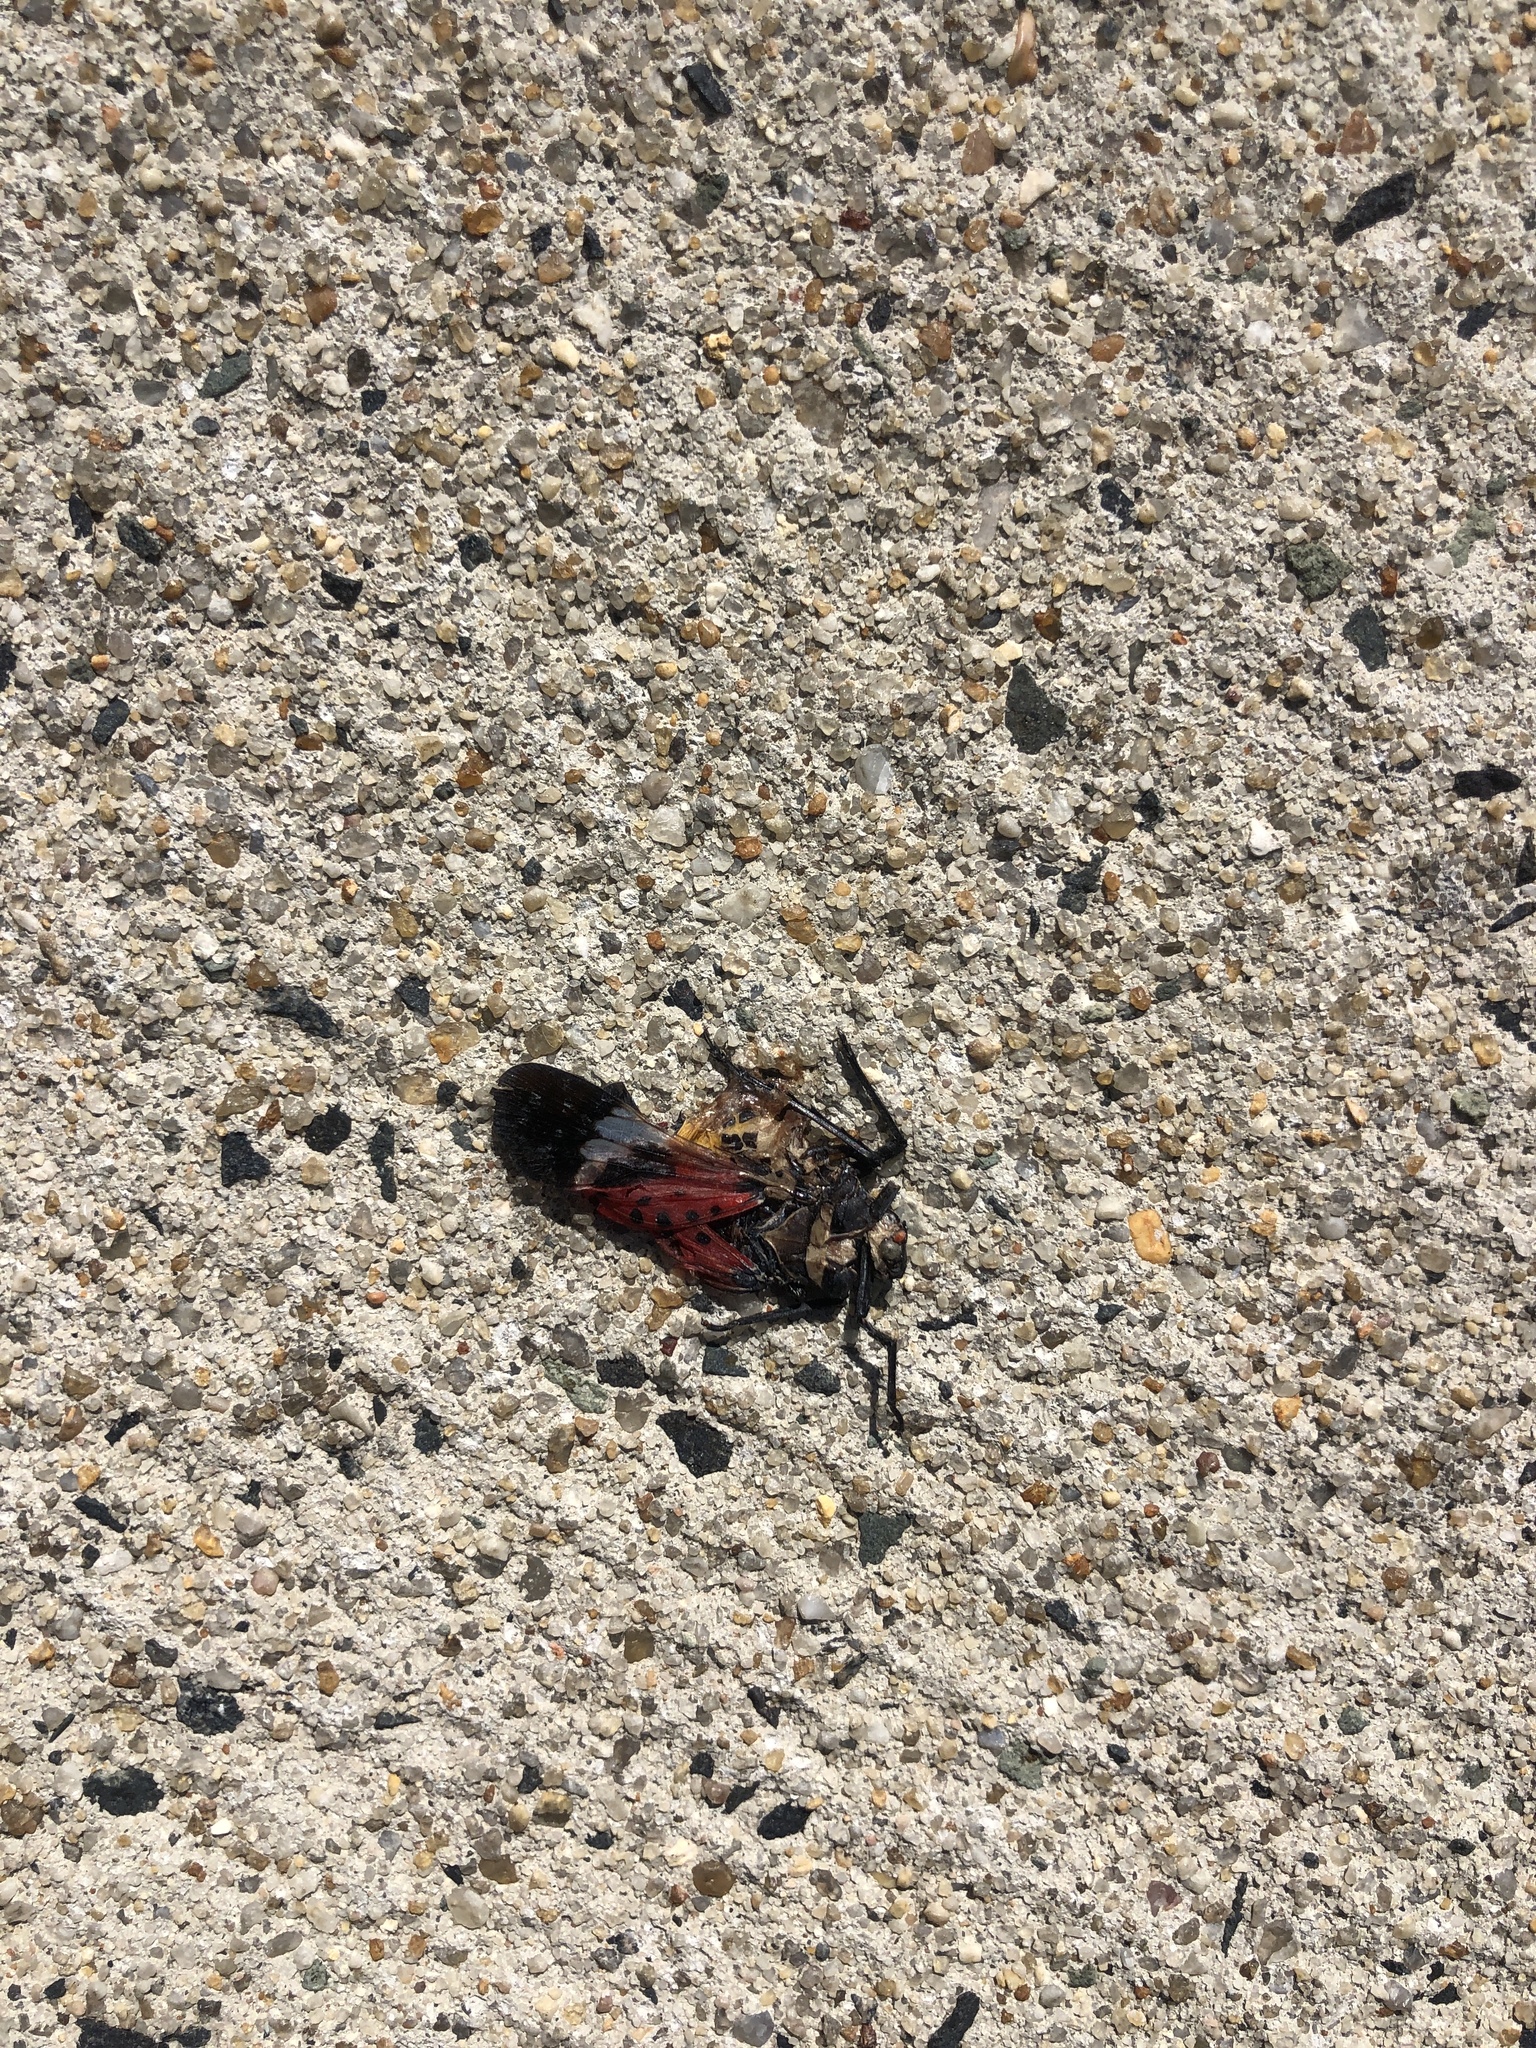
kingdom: Animalia
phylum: Arthropoda
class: Insecta
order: Hemiptera
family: Fulgoridae
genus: Lycorma
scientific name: Lycorma delicatula
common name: Spotted lanternfly
